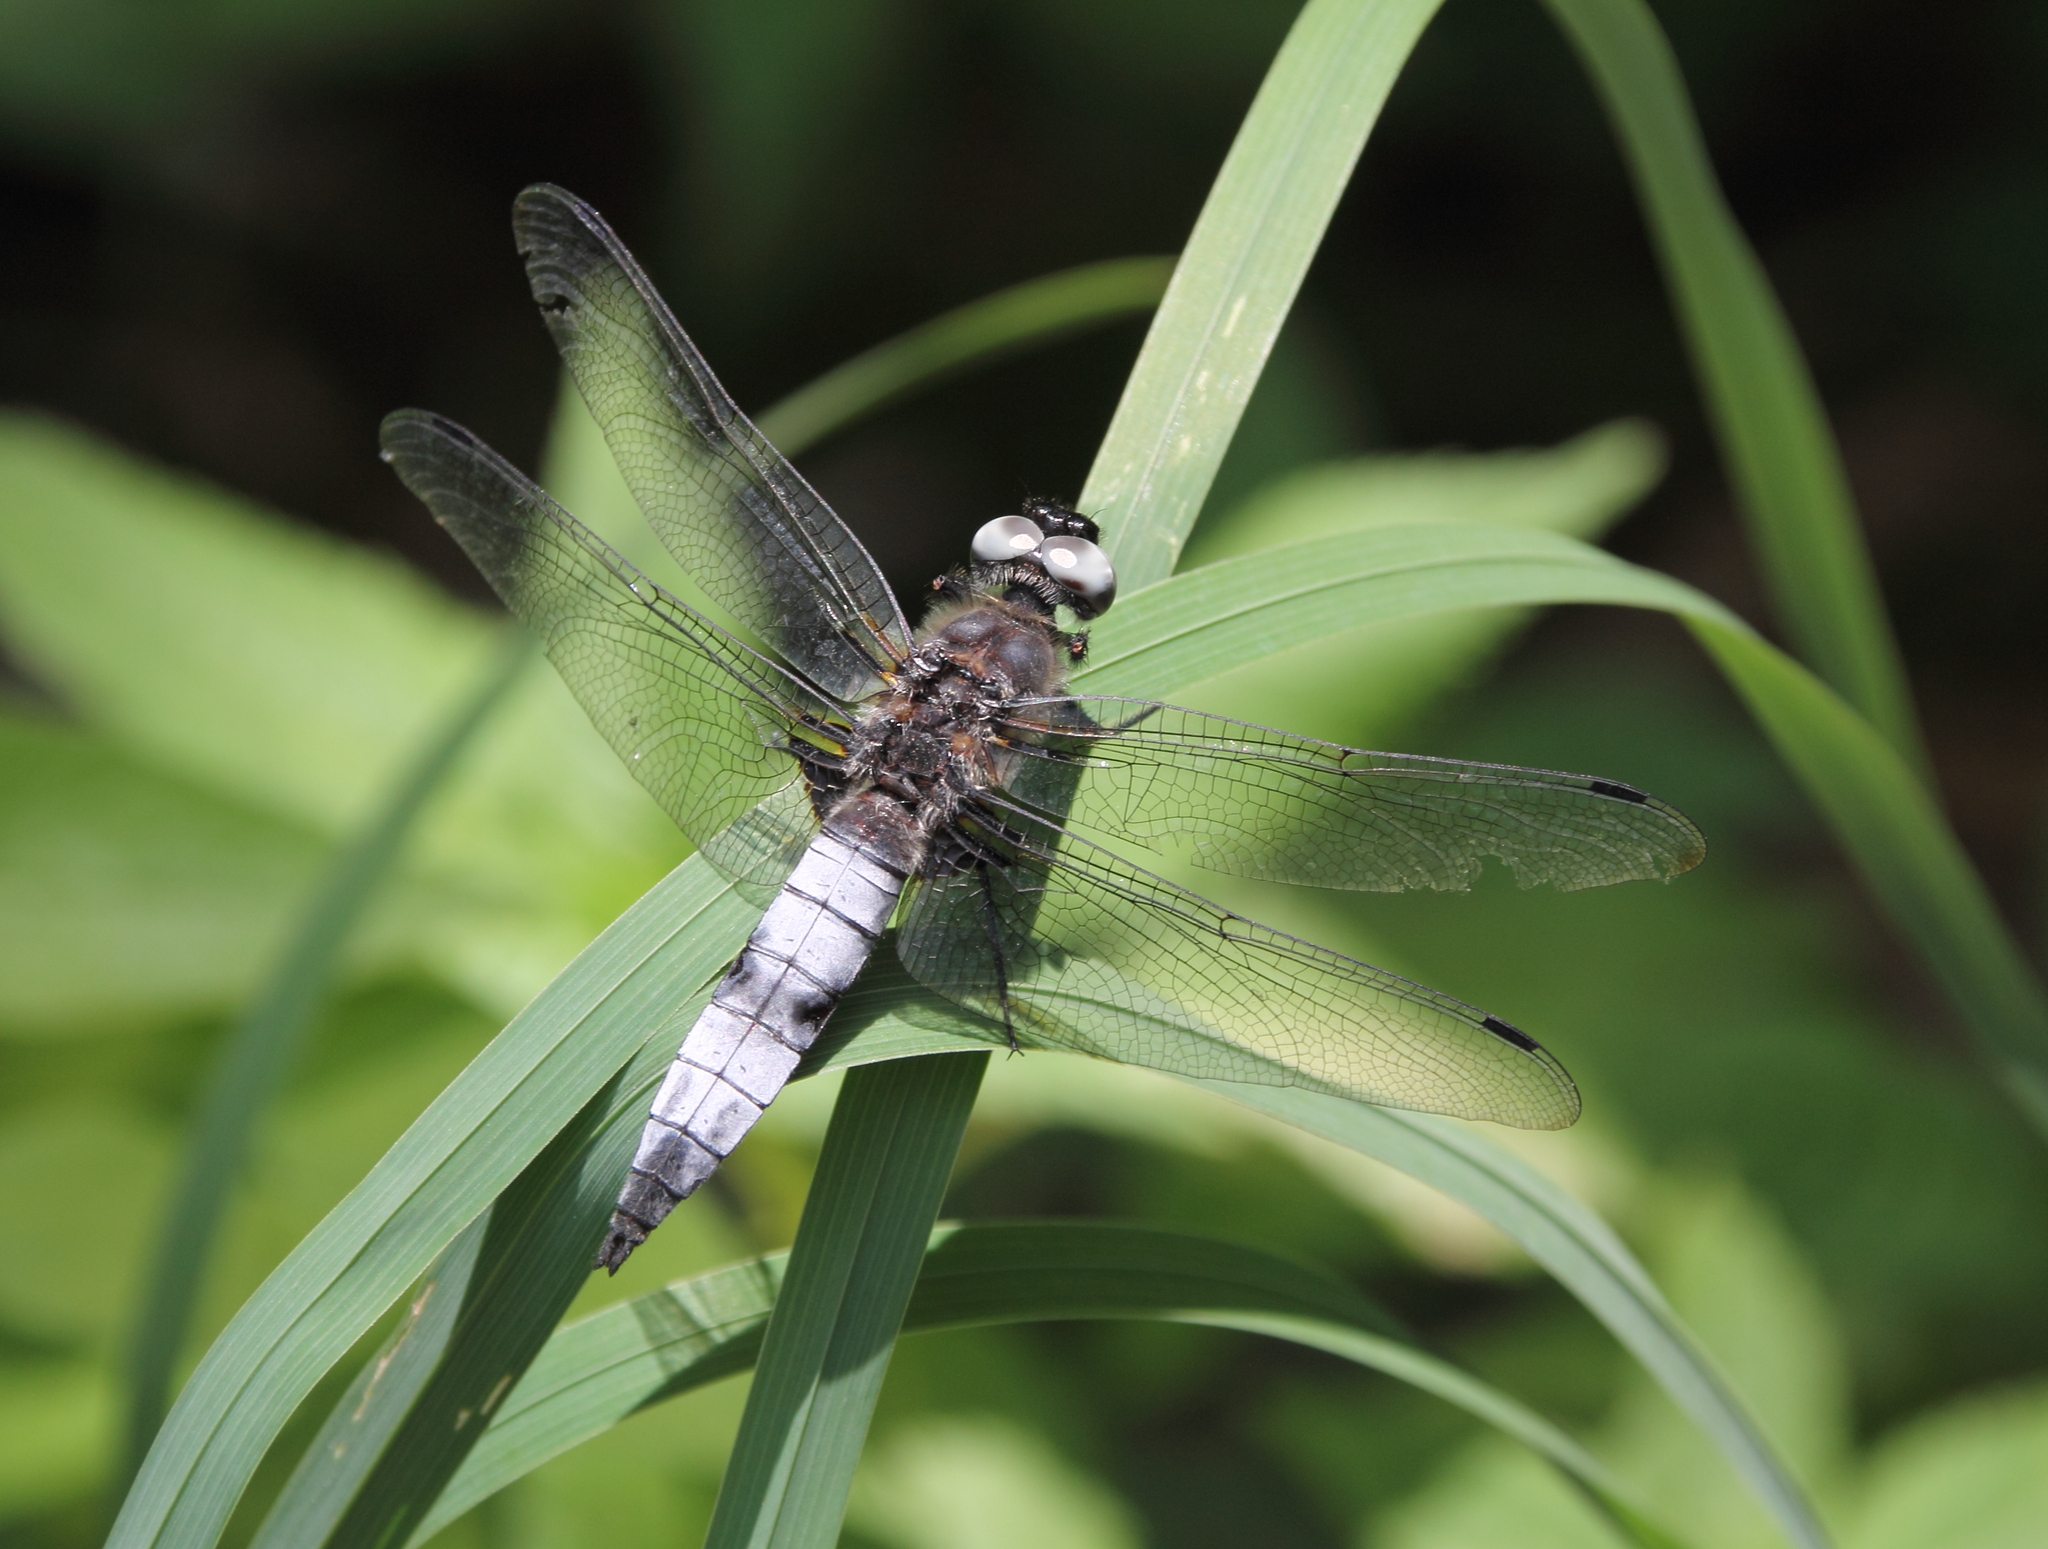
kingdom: Animalia
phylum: Arthropoda
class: Insecta
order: Odonata
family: Libellulidae
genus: Libellula
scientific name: Libellula fulva
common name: Blue chaser
